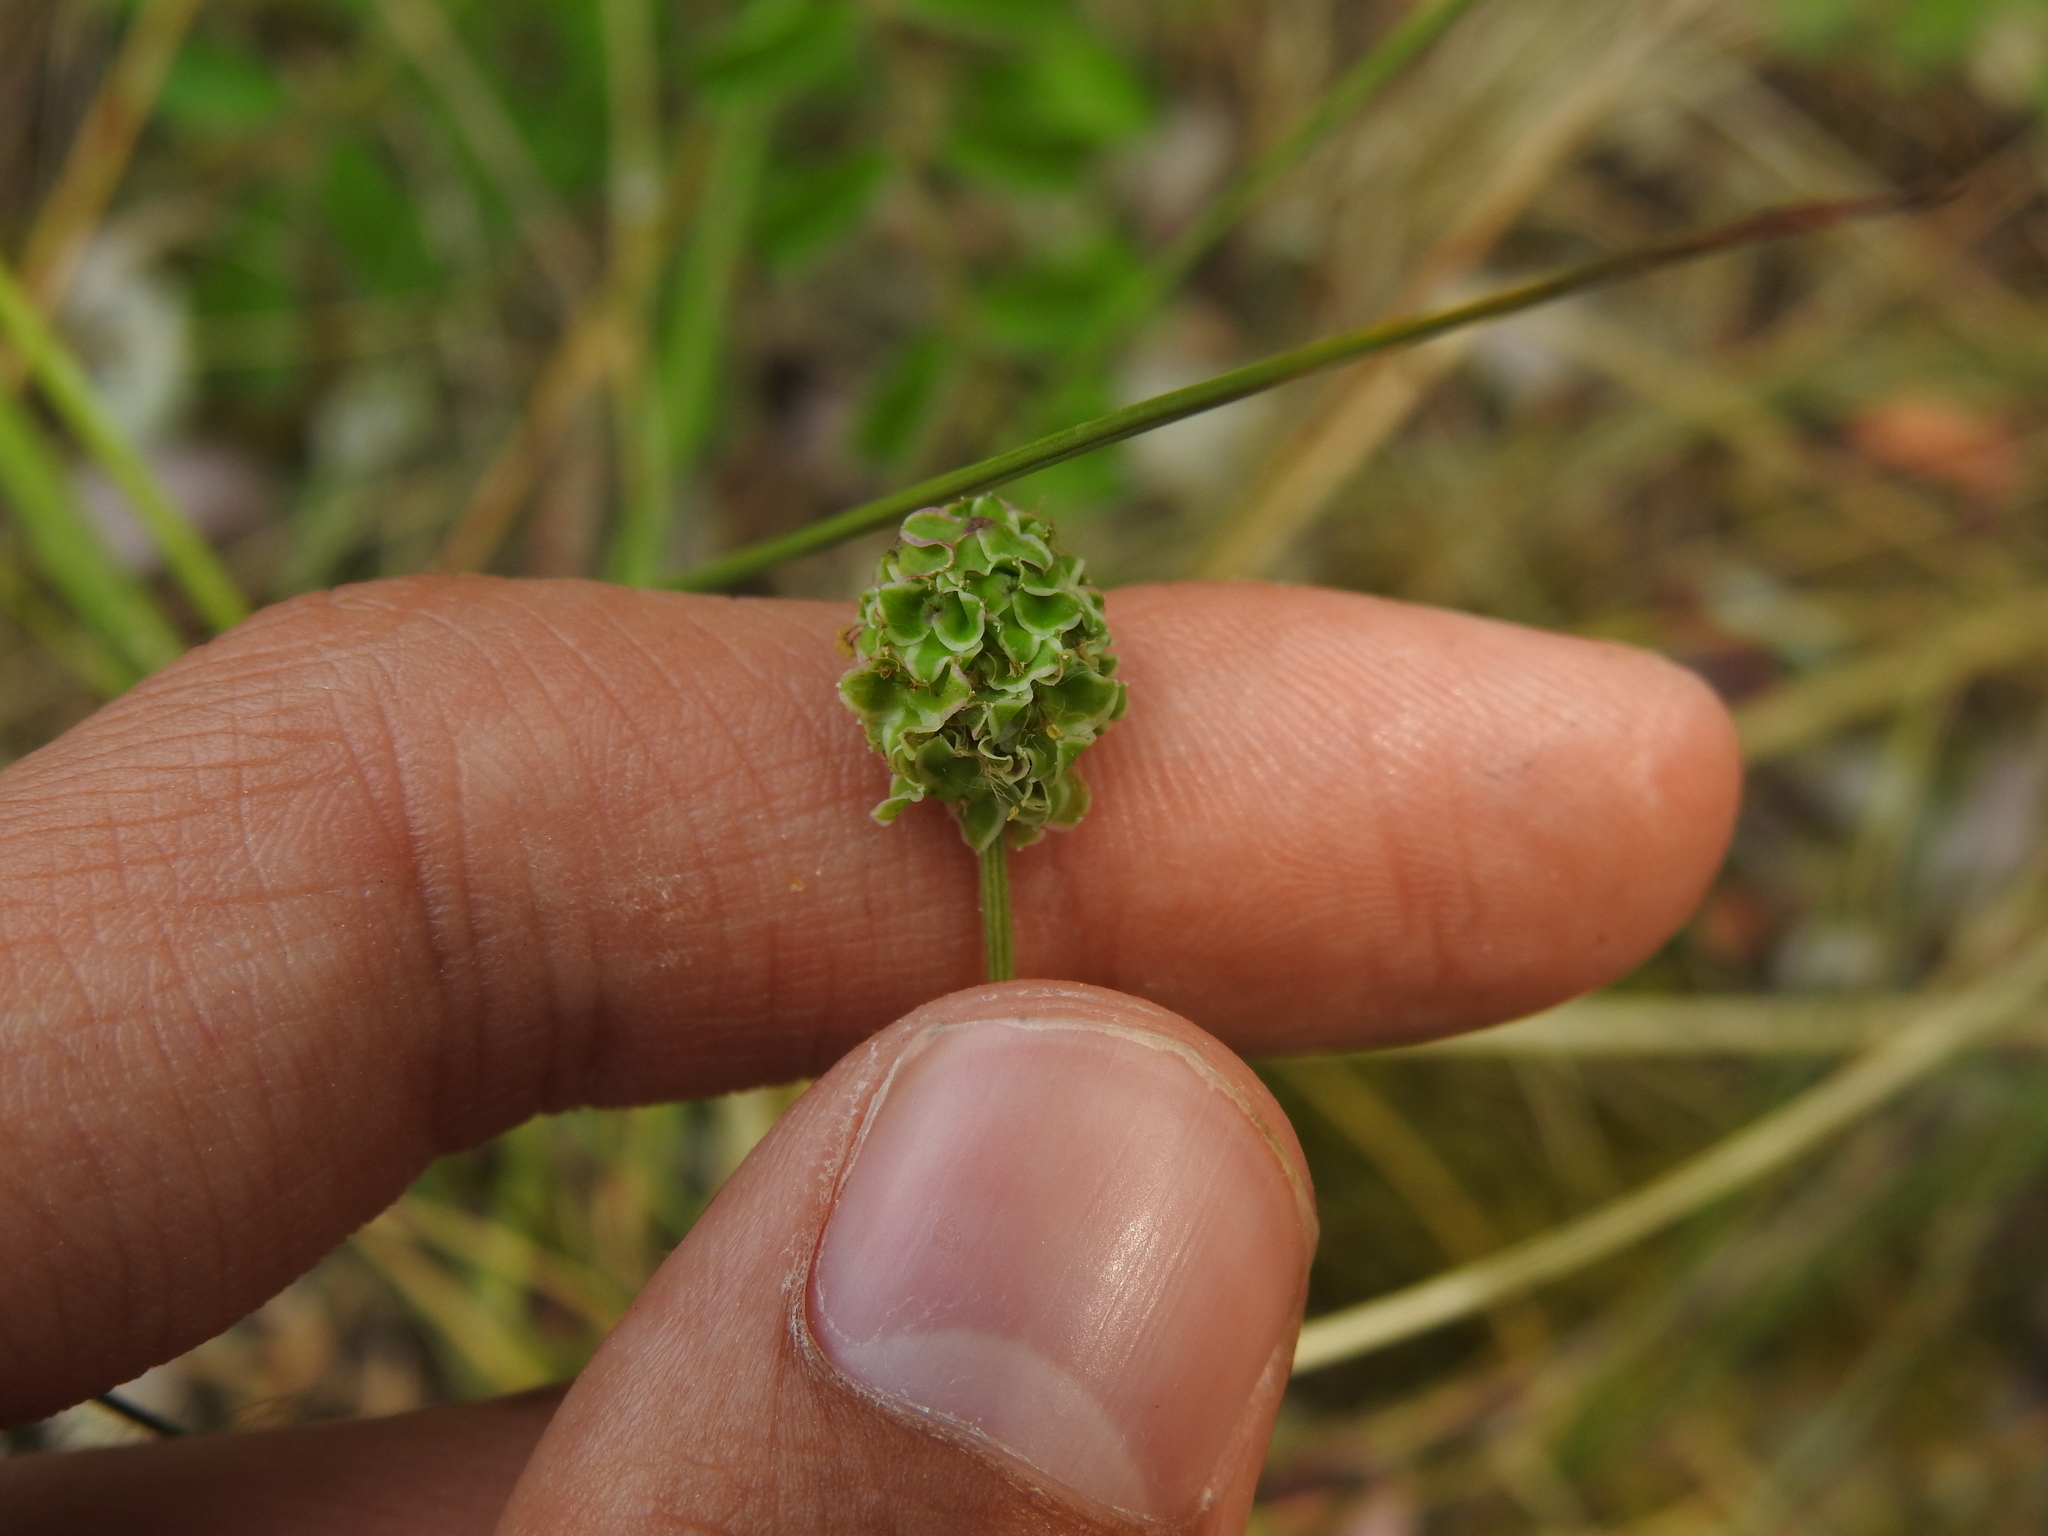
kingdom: Plantae
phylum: Tracheophyta
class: Magnoliopsida
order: Rosales
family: Rosaceae
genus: Poterium
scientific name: Poterium sanguisorba
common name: Salad burnet
